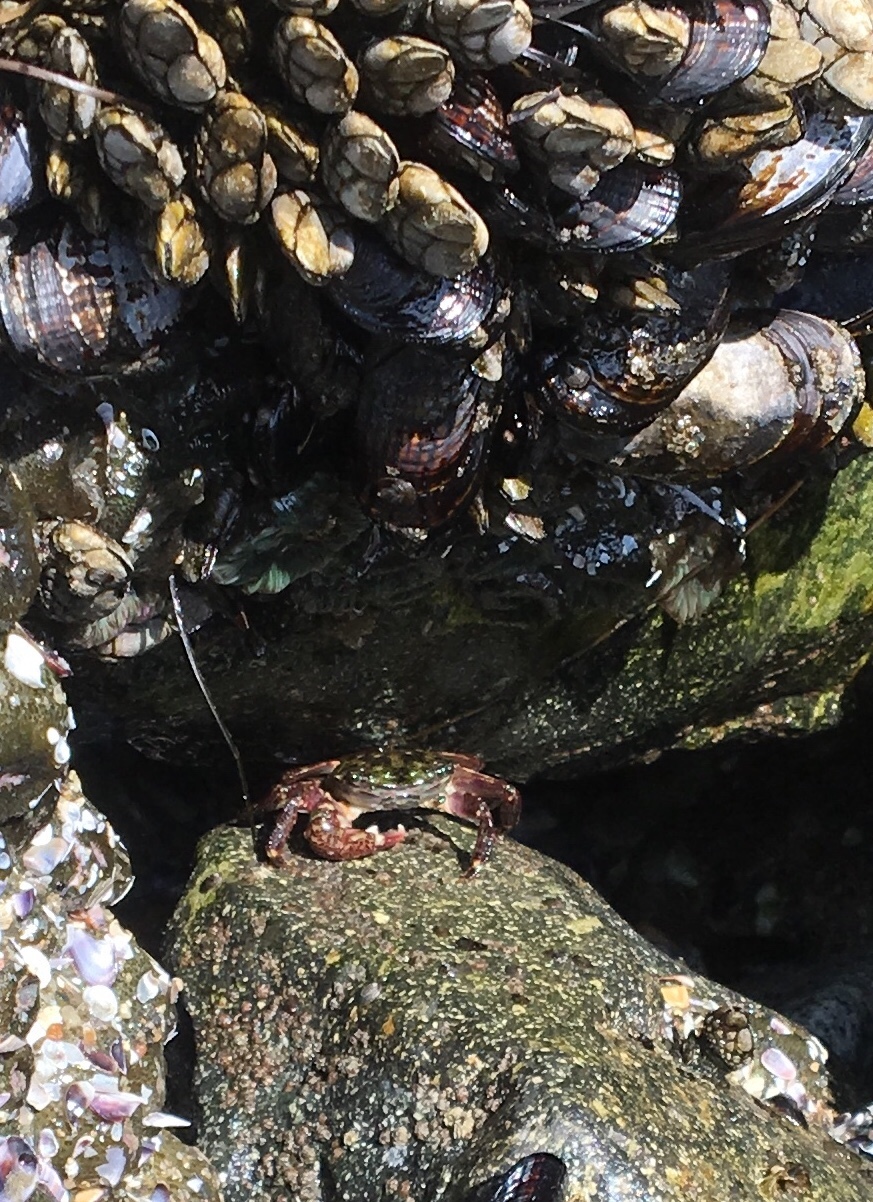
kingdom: Animalia
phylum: Arthropoda
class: Malacostraca
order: Decapoda
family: Grapsidae
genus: Pachygrapsus
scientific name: Pachygrapsus crassipes
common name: Striped shore crab
